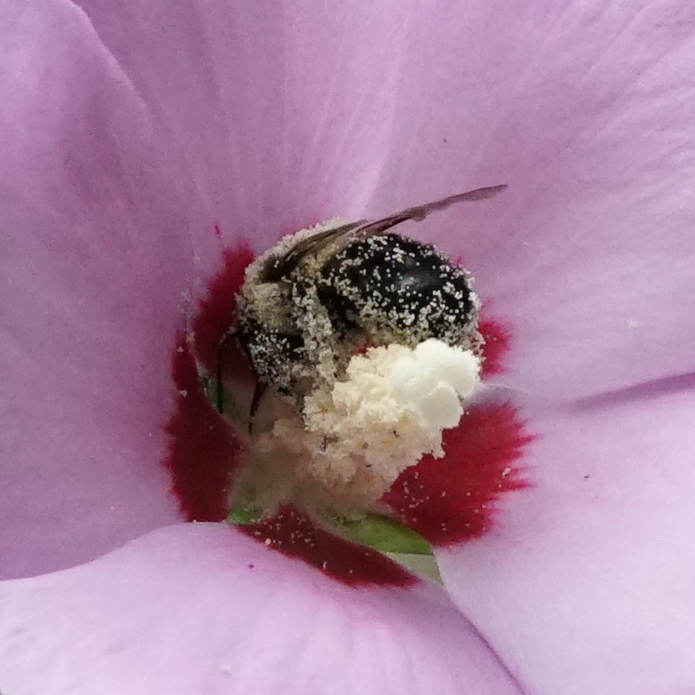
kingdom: Animalia
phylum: Arthropoda
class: Insecta
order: Hymenoptera
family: Apidae
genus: Bombus
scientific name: Bombus impatiens
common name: Common eastern bumble bee
